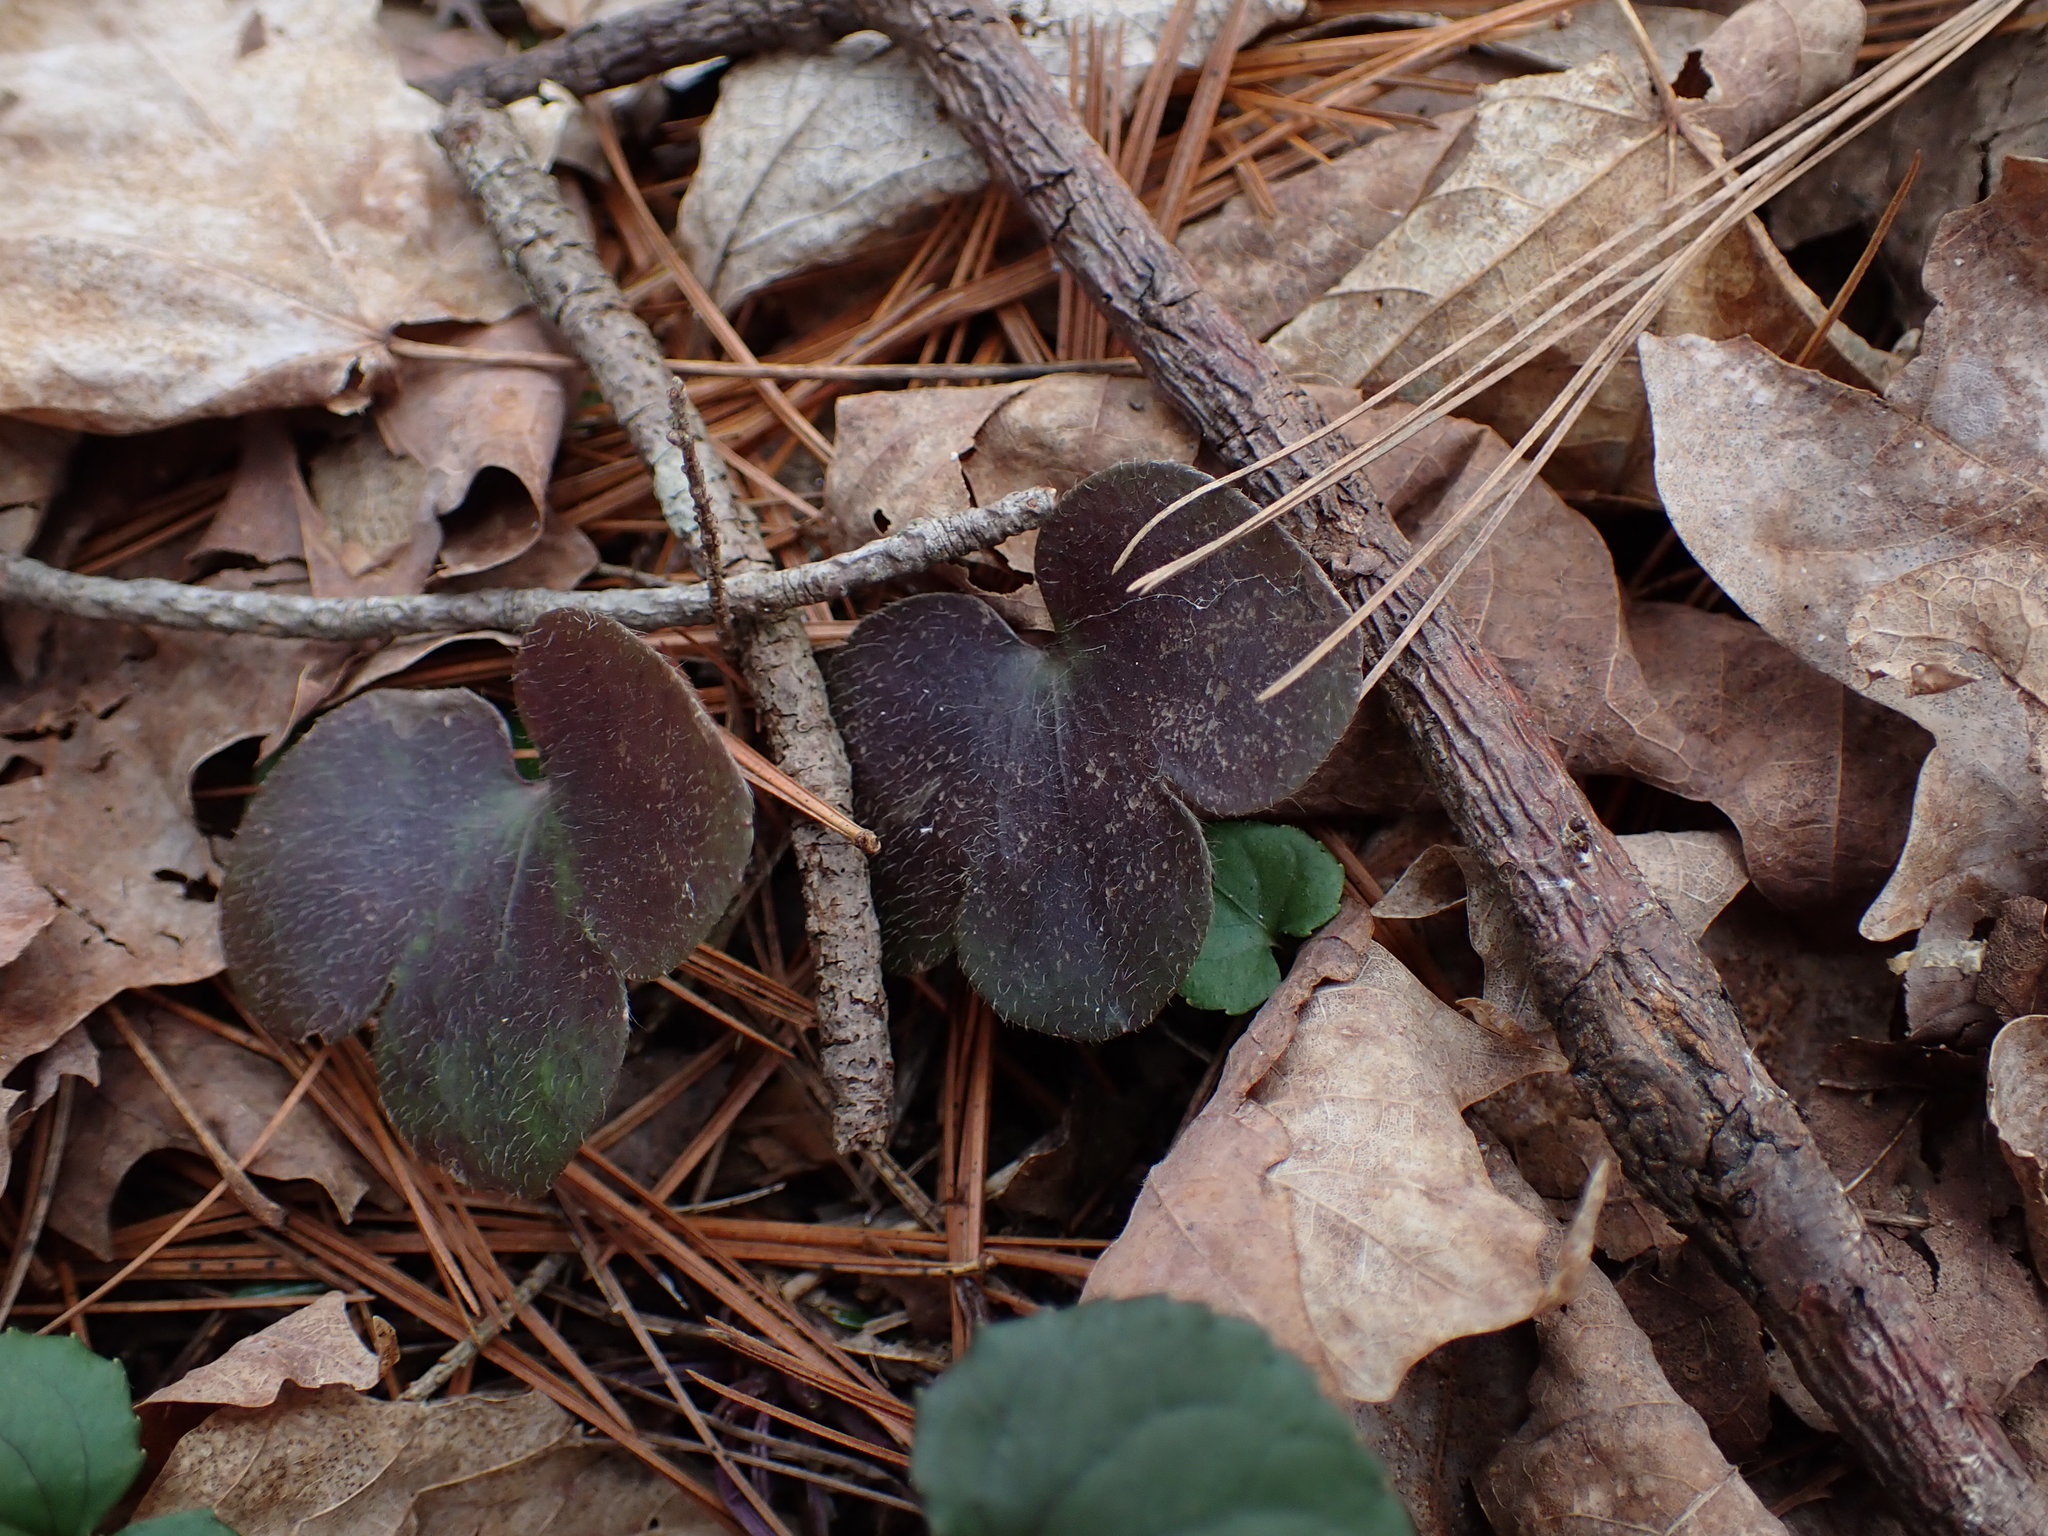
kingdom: Plantae
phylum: Tracheophyta
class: Magnoliopsida
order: Ranunculales
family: Ranunculaceae
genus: Hepatica
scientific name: Hepatica americana
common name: American hepatica
